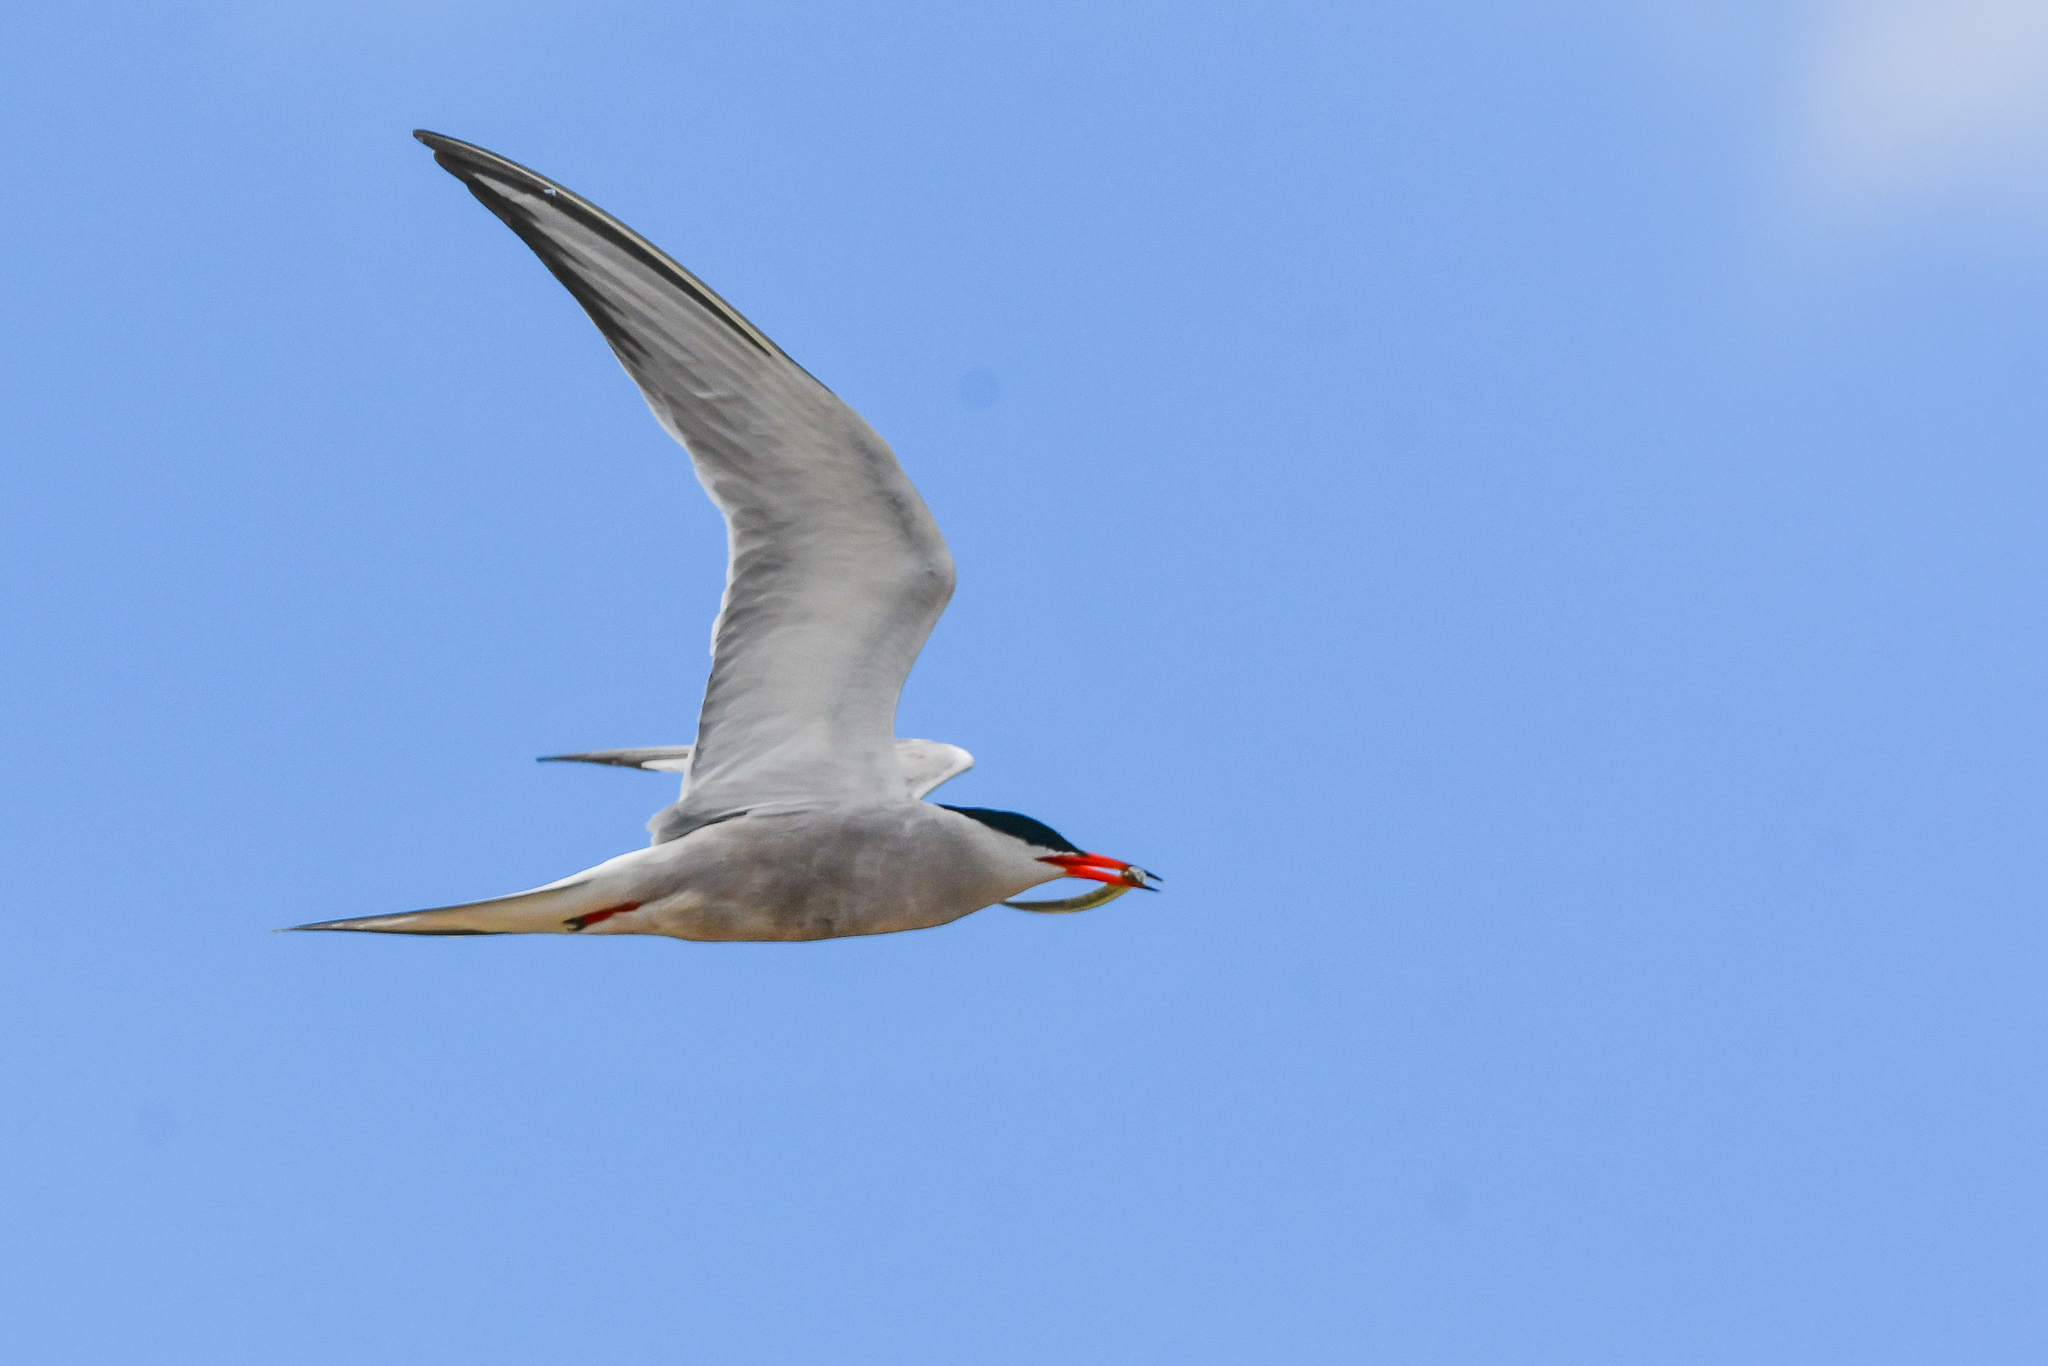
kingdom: Animalia
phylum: Chordata
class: Aves
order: Charadriiformes
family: Laridae
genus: Sterna
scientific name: Sterna hirundo
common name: Common tern
